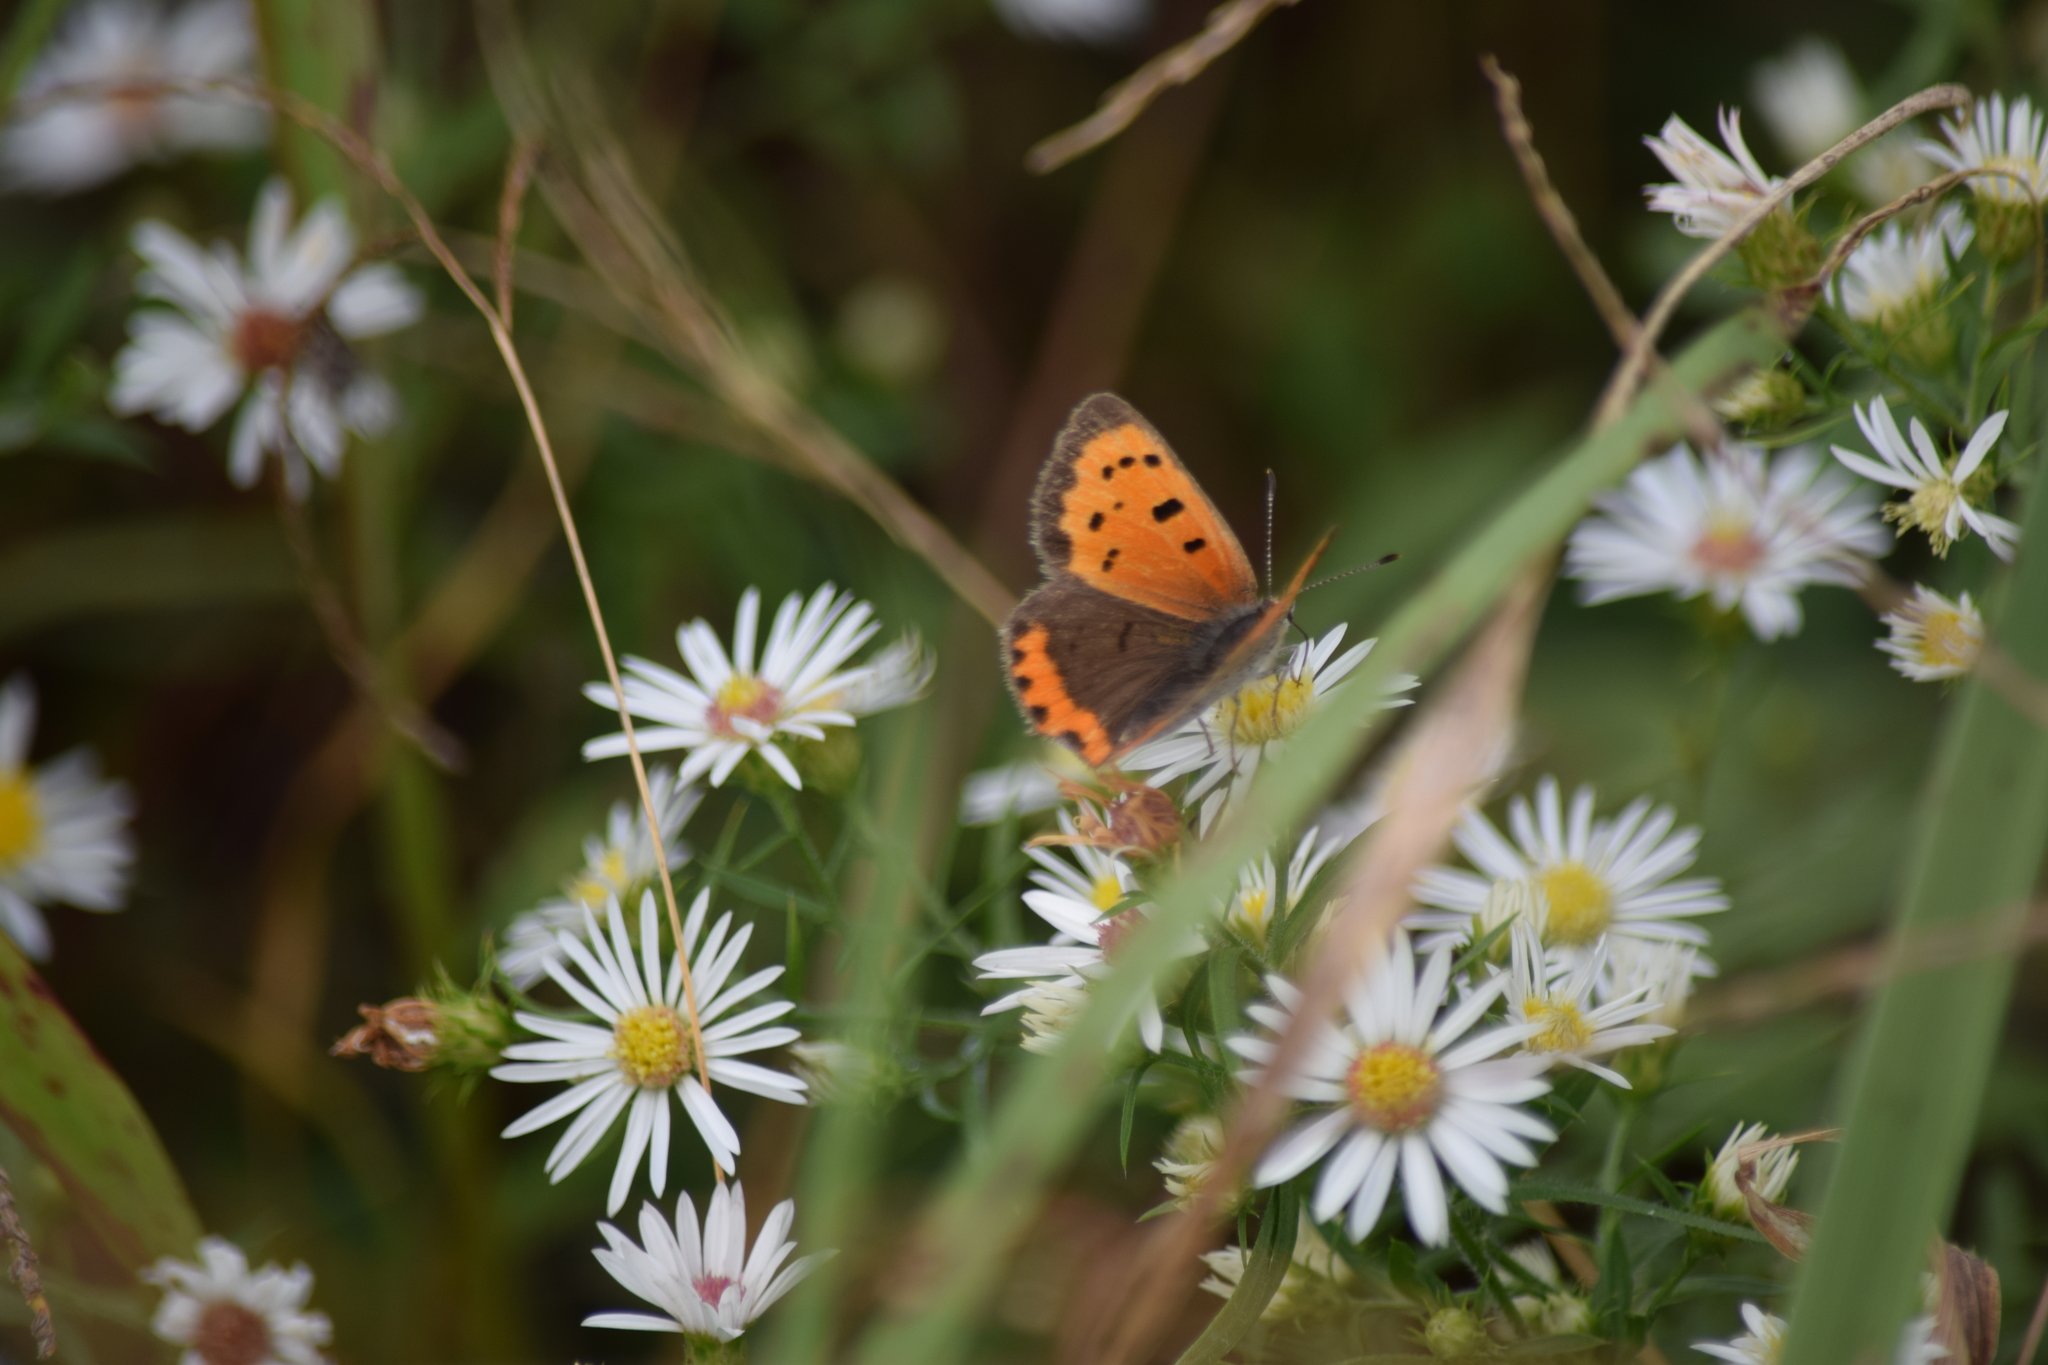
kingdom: Animalia
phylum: Arthropoda
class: Insecta
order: Lepidoptera
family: Lycaenidae
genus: Lycaena
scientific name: Lycaena hypophlaeas
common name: American copper
